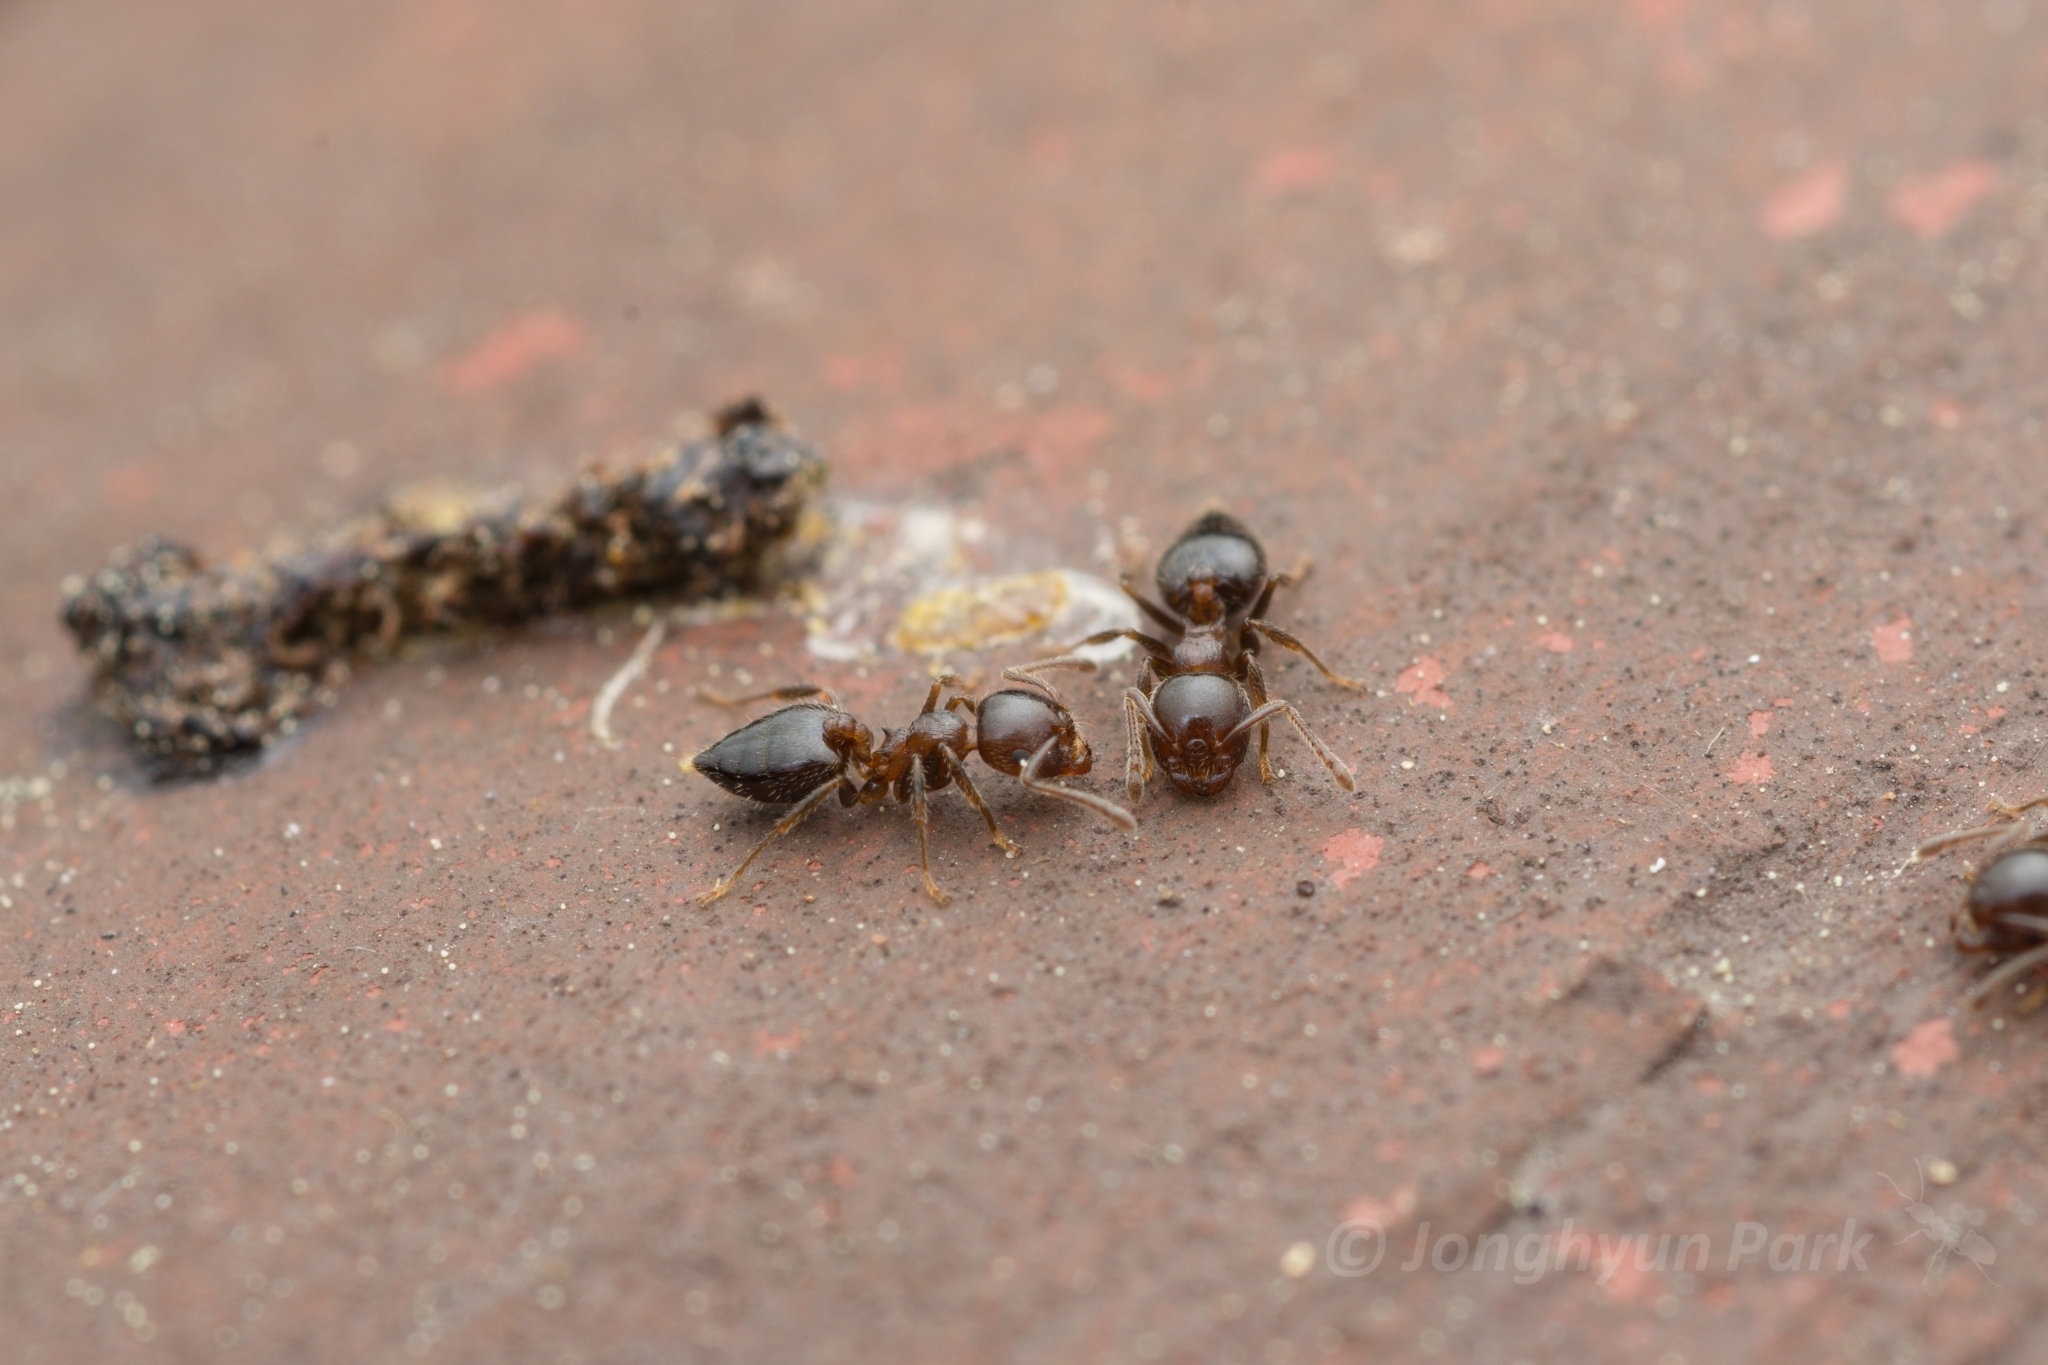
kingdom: Animalia
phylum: Arthropoda
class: Insecta
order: Hymenoptera
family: Formicidae
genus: Crematogaster
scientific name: Crematogaster matsumurai
